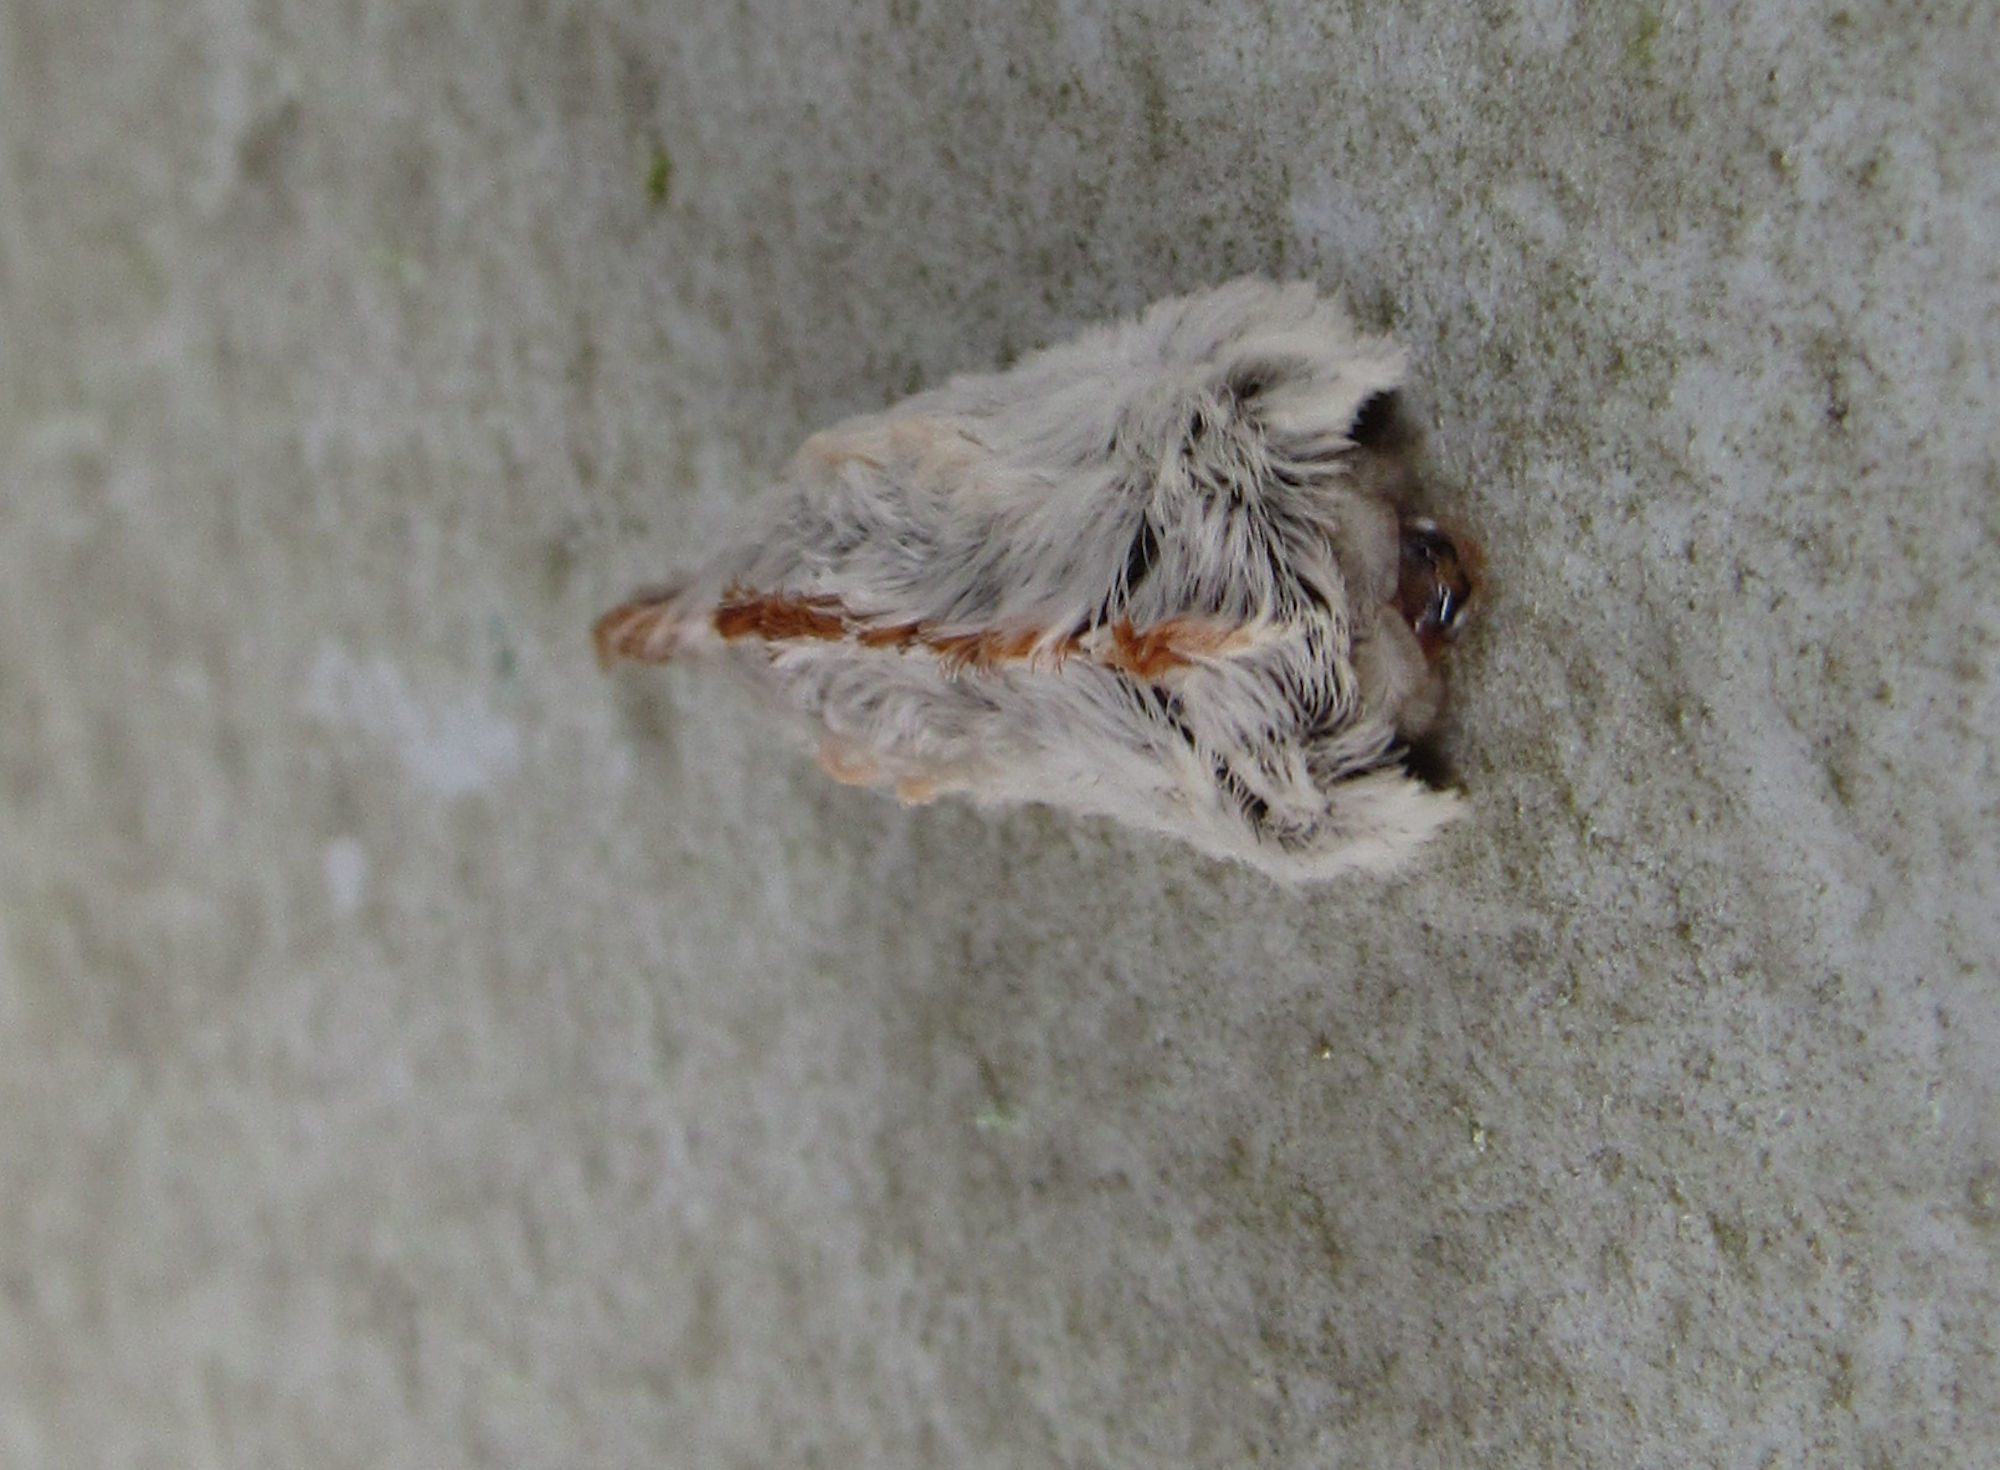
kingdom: Animalia
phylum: Arthropoda
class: Insecta
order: Lepidoptera
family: Megalopygidae
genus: Megalopyge
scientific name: Megalopyge opercularis
